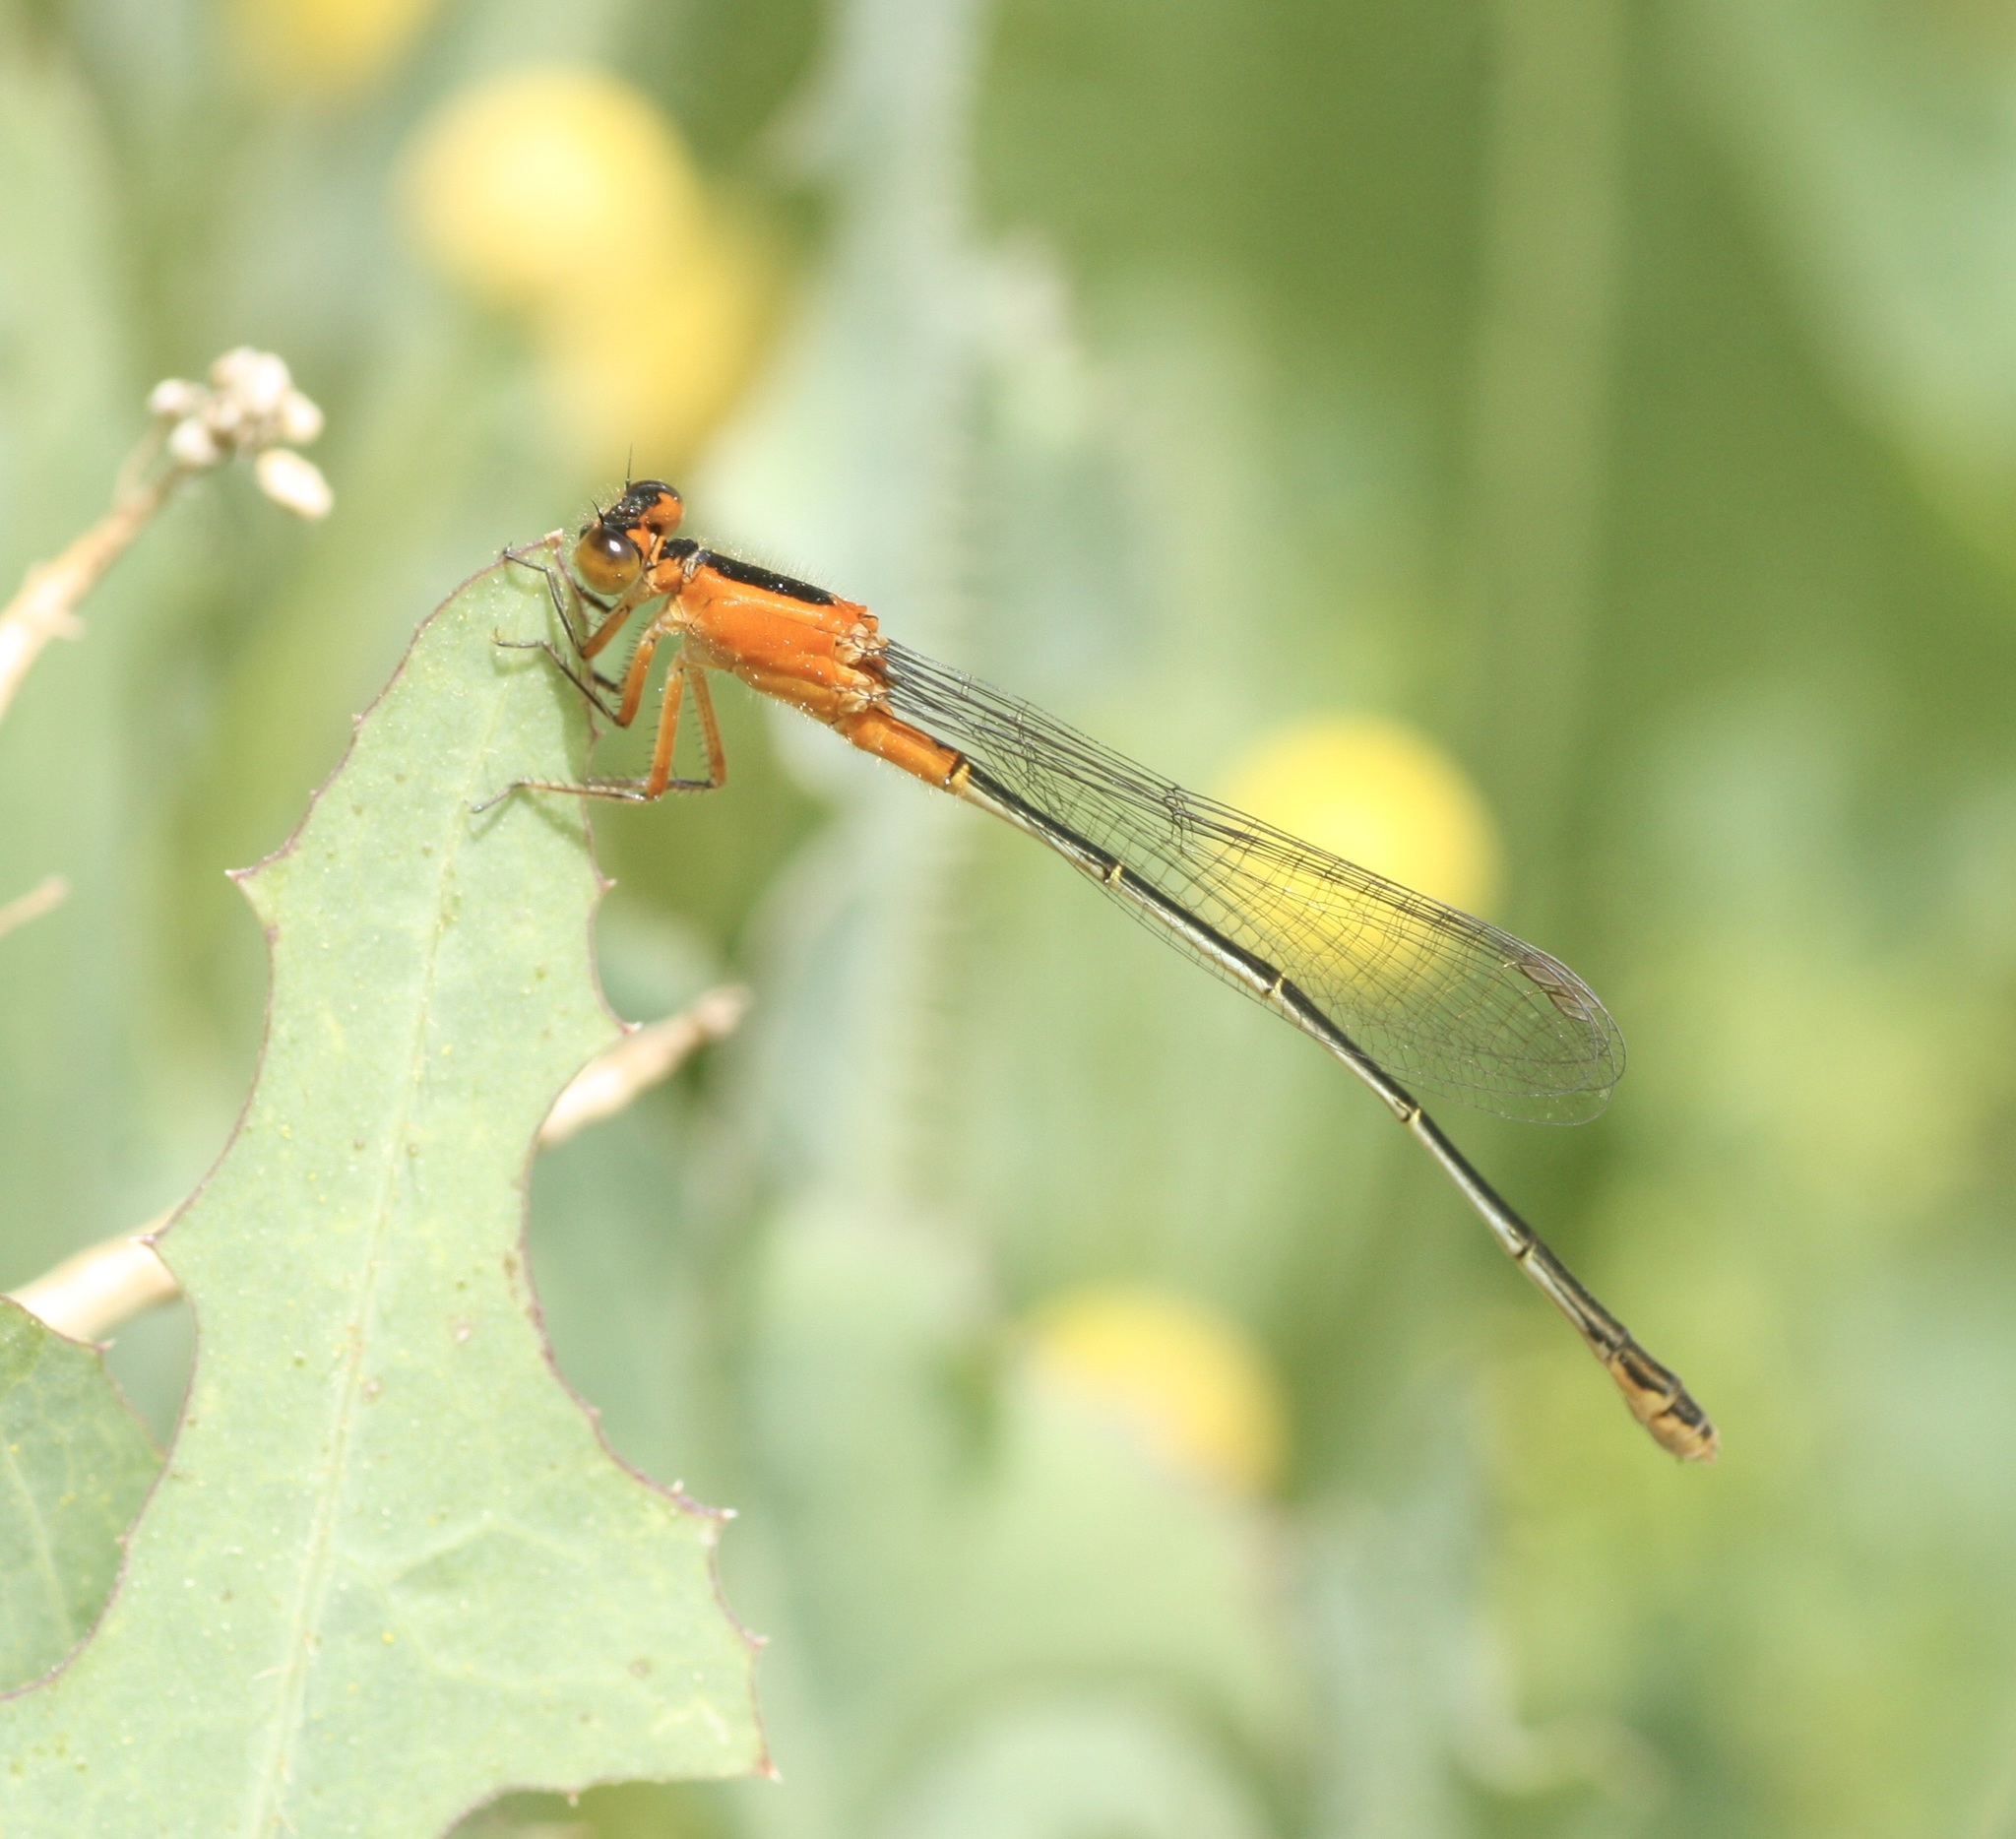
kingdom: Animalia
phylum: Arthropoda
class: Insecta
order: Odonata
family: Coenagrionidae
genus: Ischnura
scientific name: Ischnura ramburii
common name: Rambur's forktail
